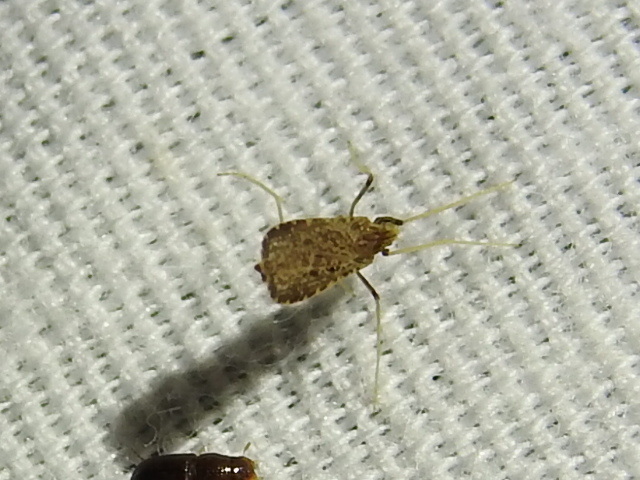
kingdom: Animalia
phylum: Arthropoda
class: Insecta
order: Diptera
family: Limoniidae
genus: Erioptera
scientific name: Erioptera tantilla
